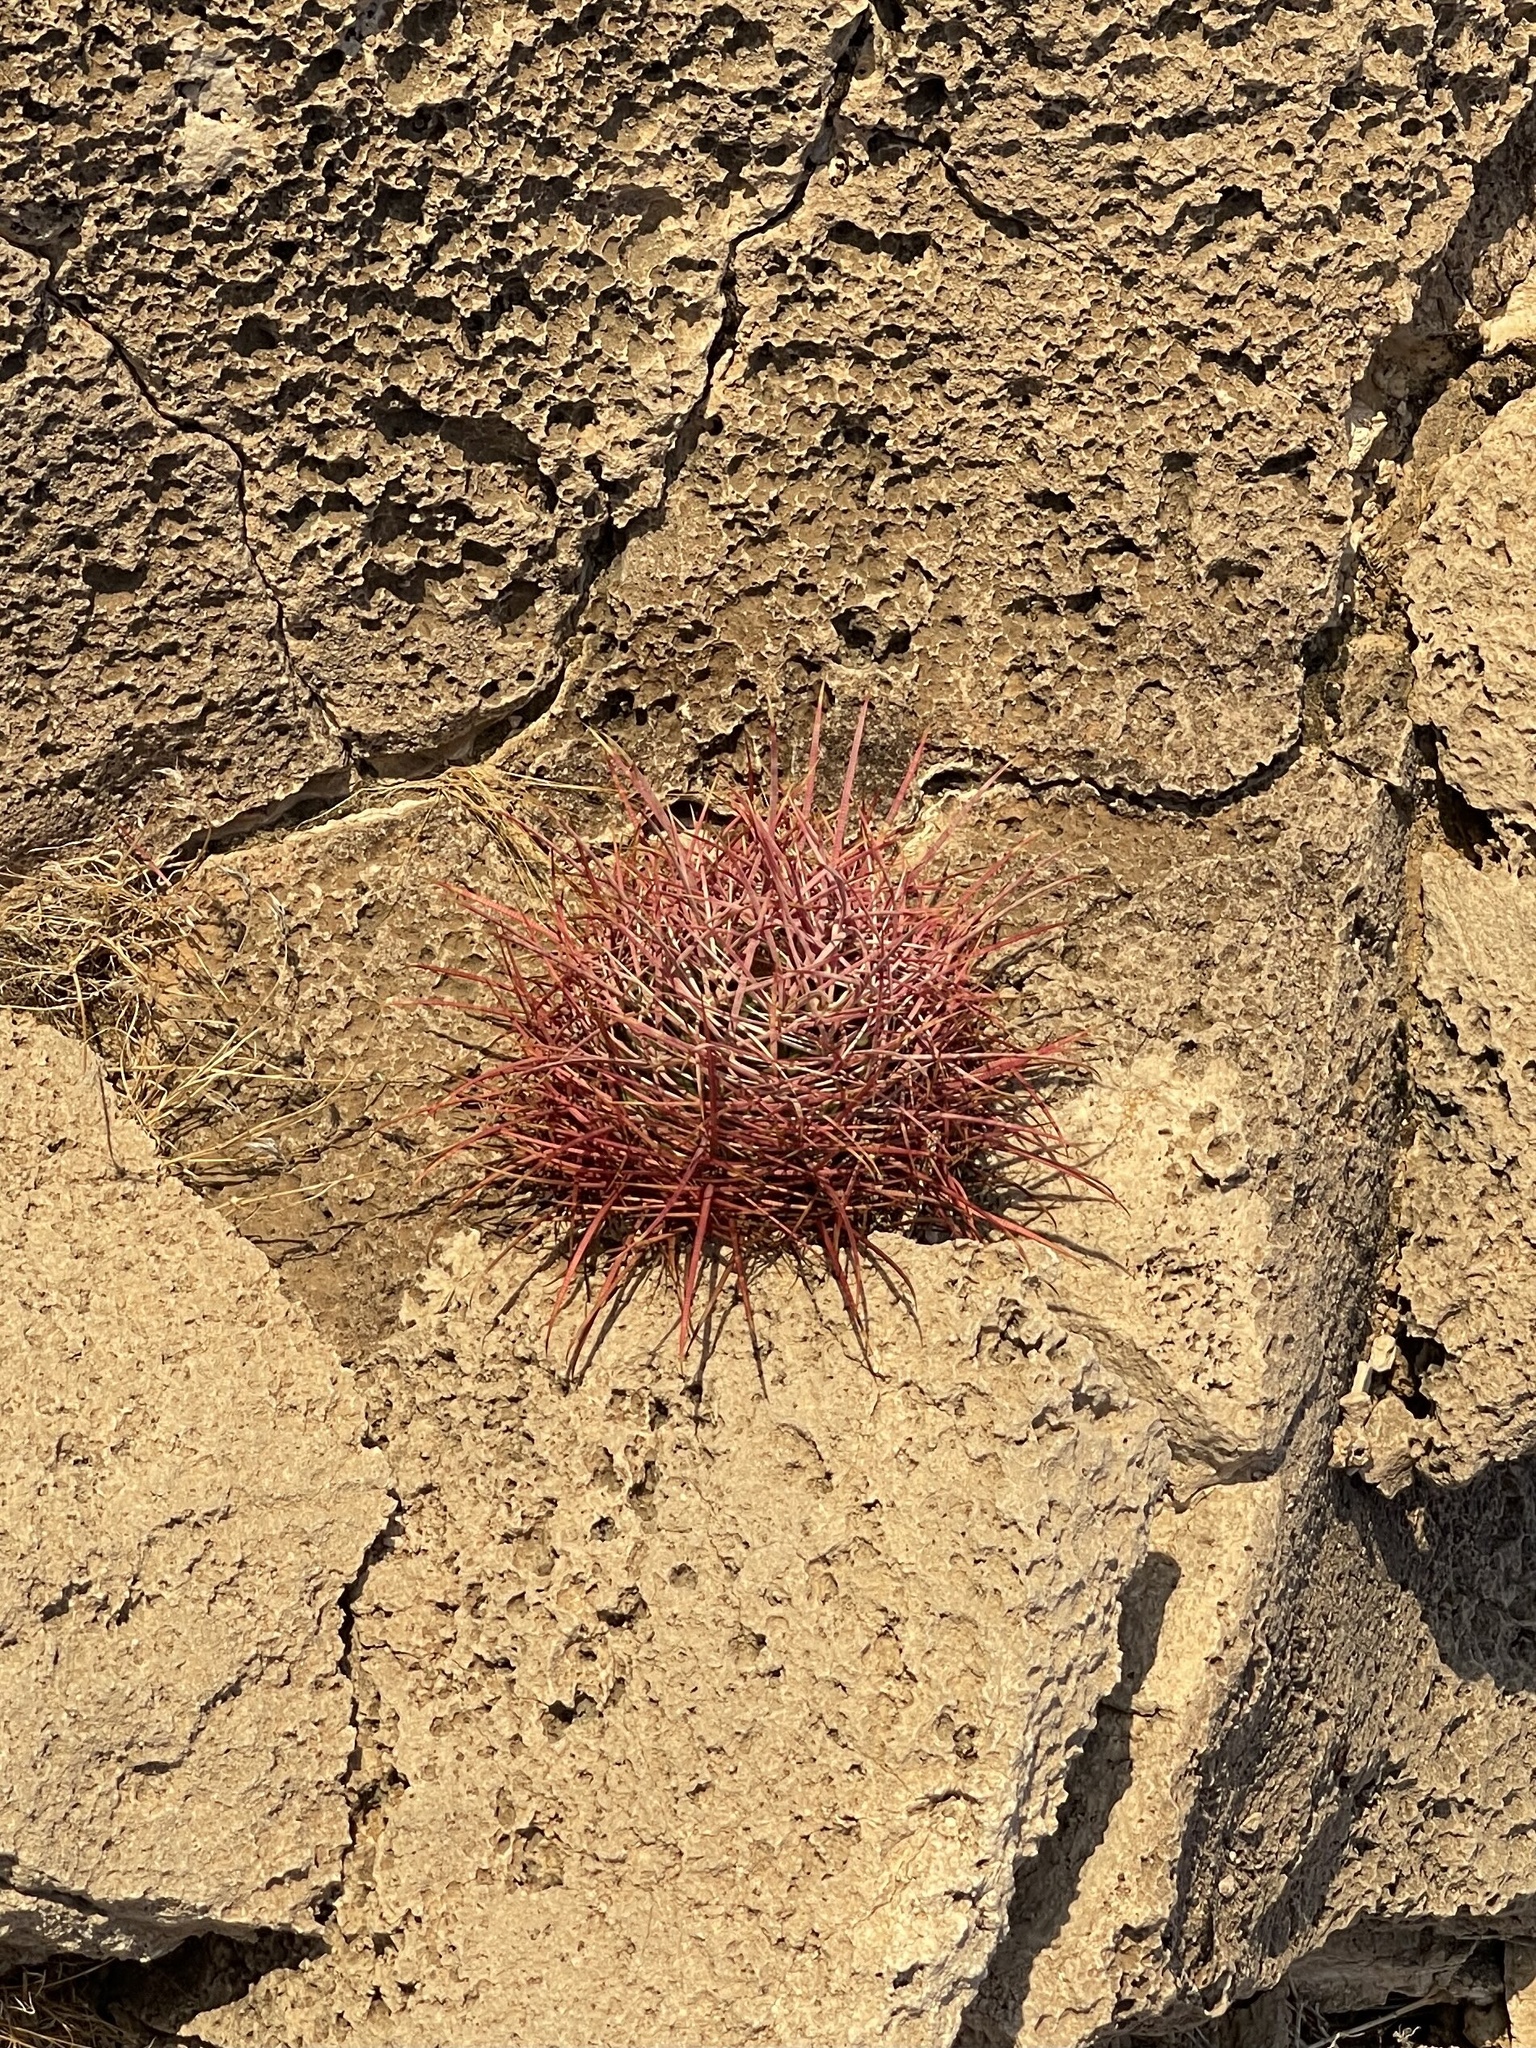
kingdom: Plantae
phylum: Tracheophyta
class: Magnoliopsida
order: Caryophyllales
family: Cactaceae
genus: Ferocactus
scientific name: Ferocactus cylindraceus
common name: California barrel cactus
